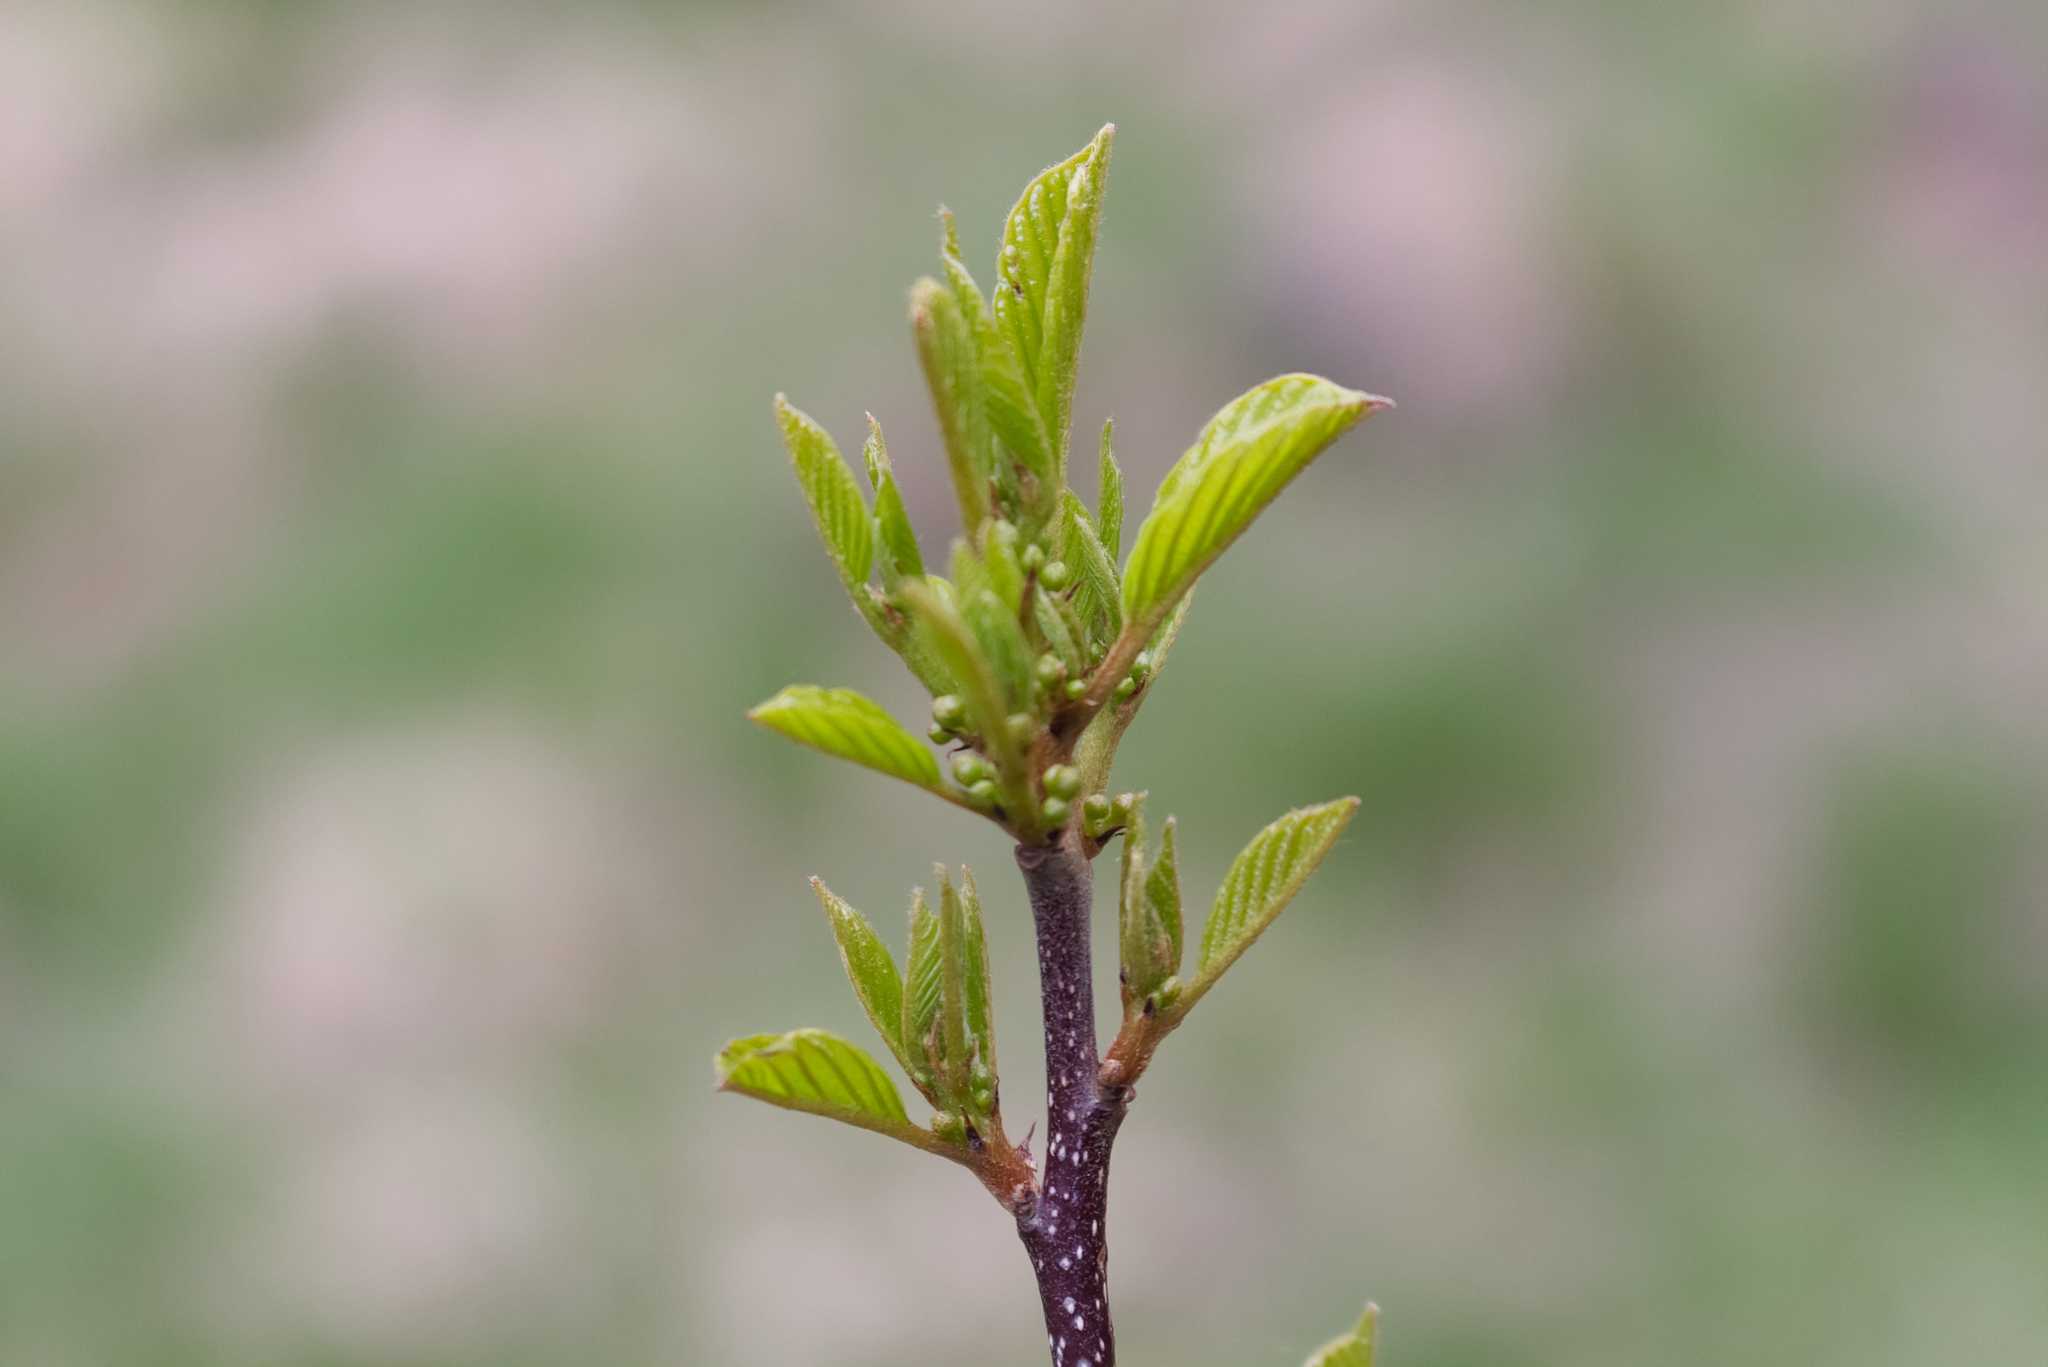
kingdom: Plantae
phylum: Tracheophyta
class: Magnoliopsida
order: Rosales
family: Rhamnaceae
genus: Frangula
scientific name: Frangula alnus
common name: Alder buckthorn
